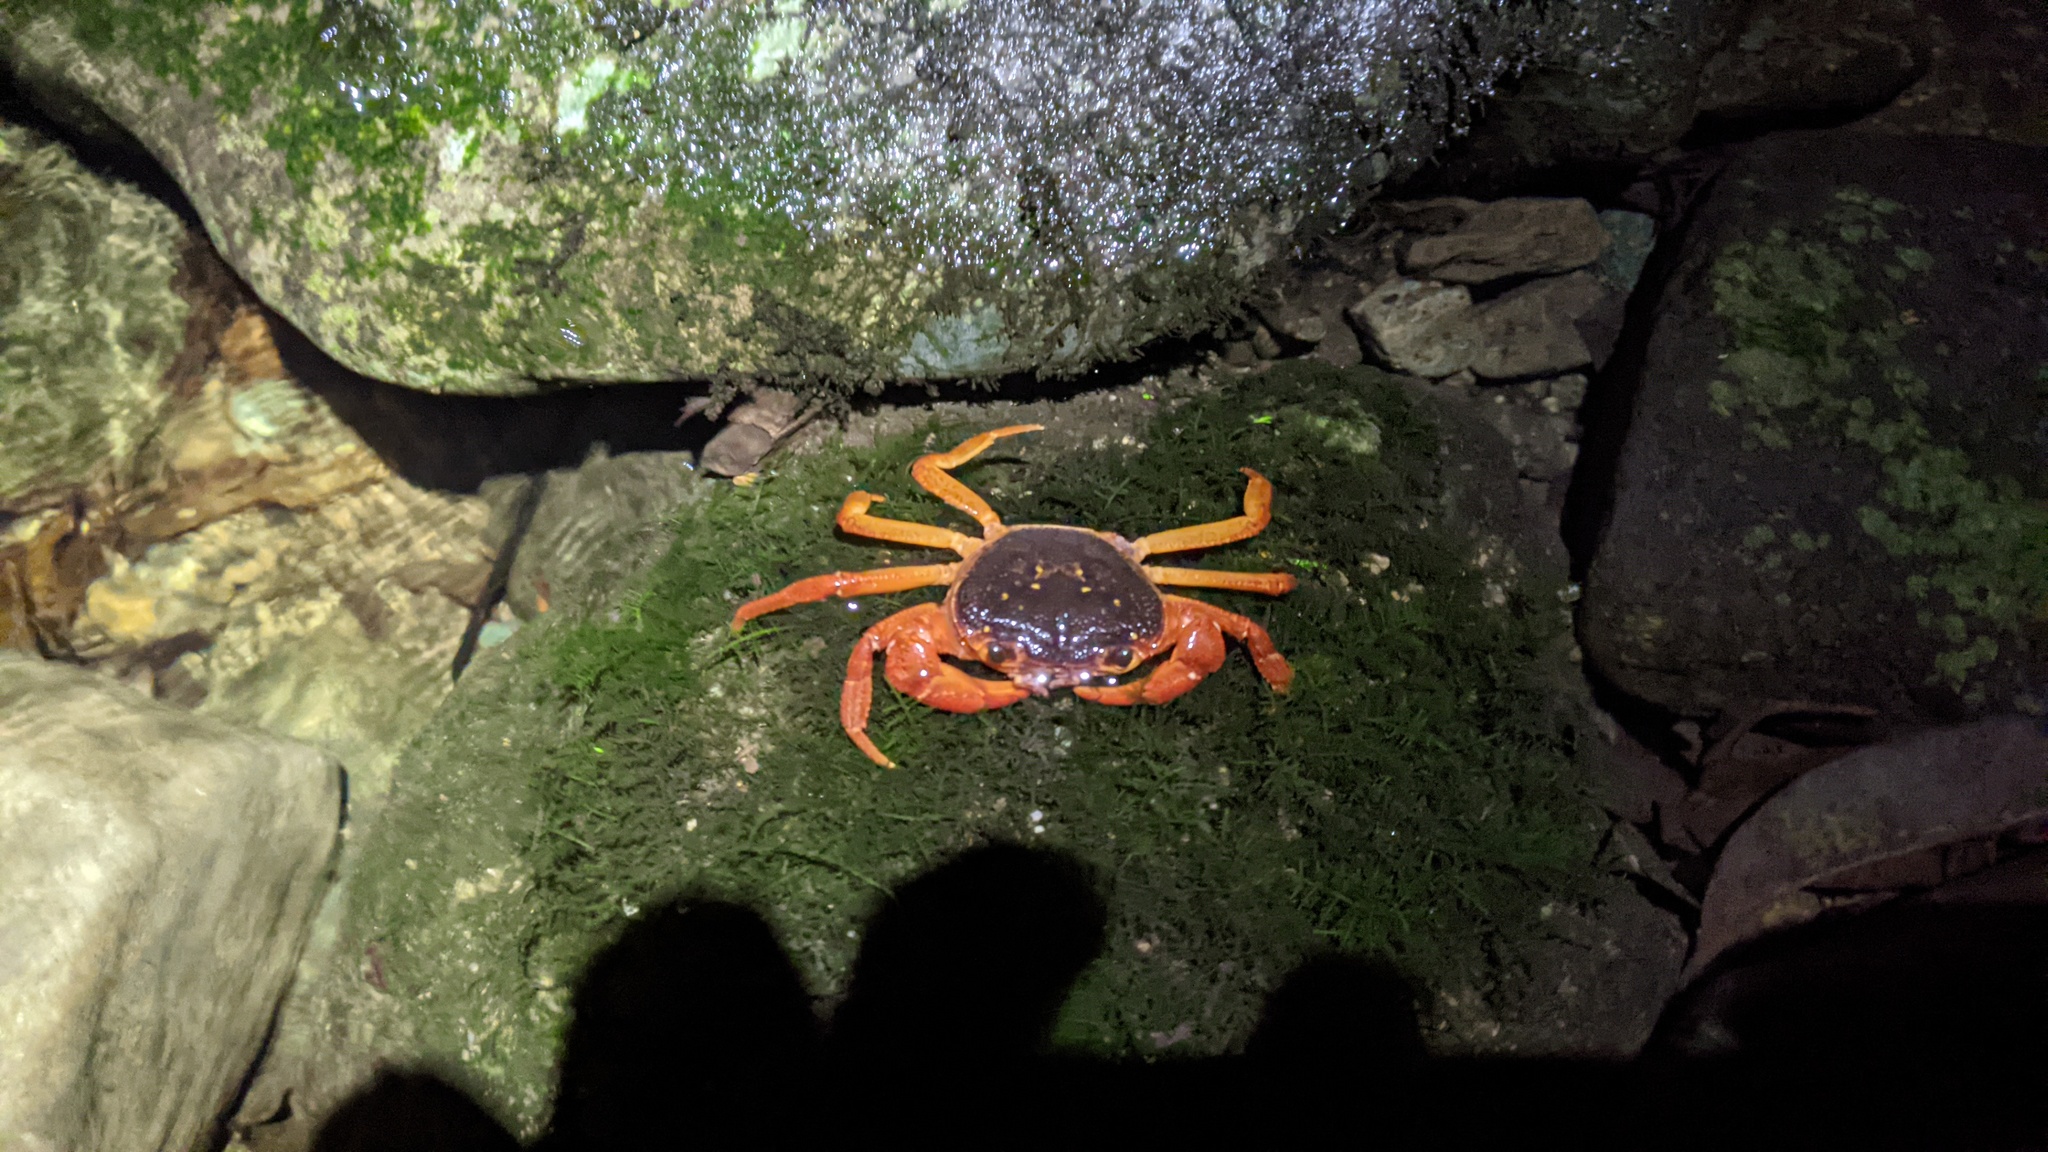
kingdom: Animalia
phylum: Arthropoda
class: Malacostraca
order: Decapoda
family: Potamidae
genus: Candidiopotamon
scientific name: Candidiopotamon rathbuni
